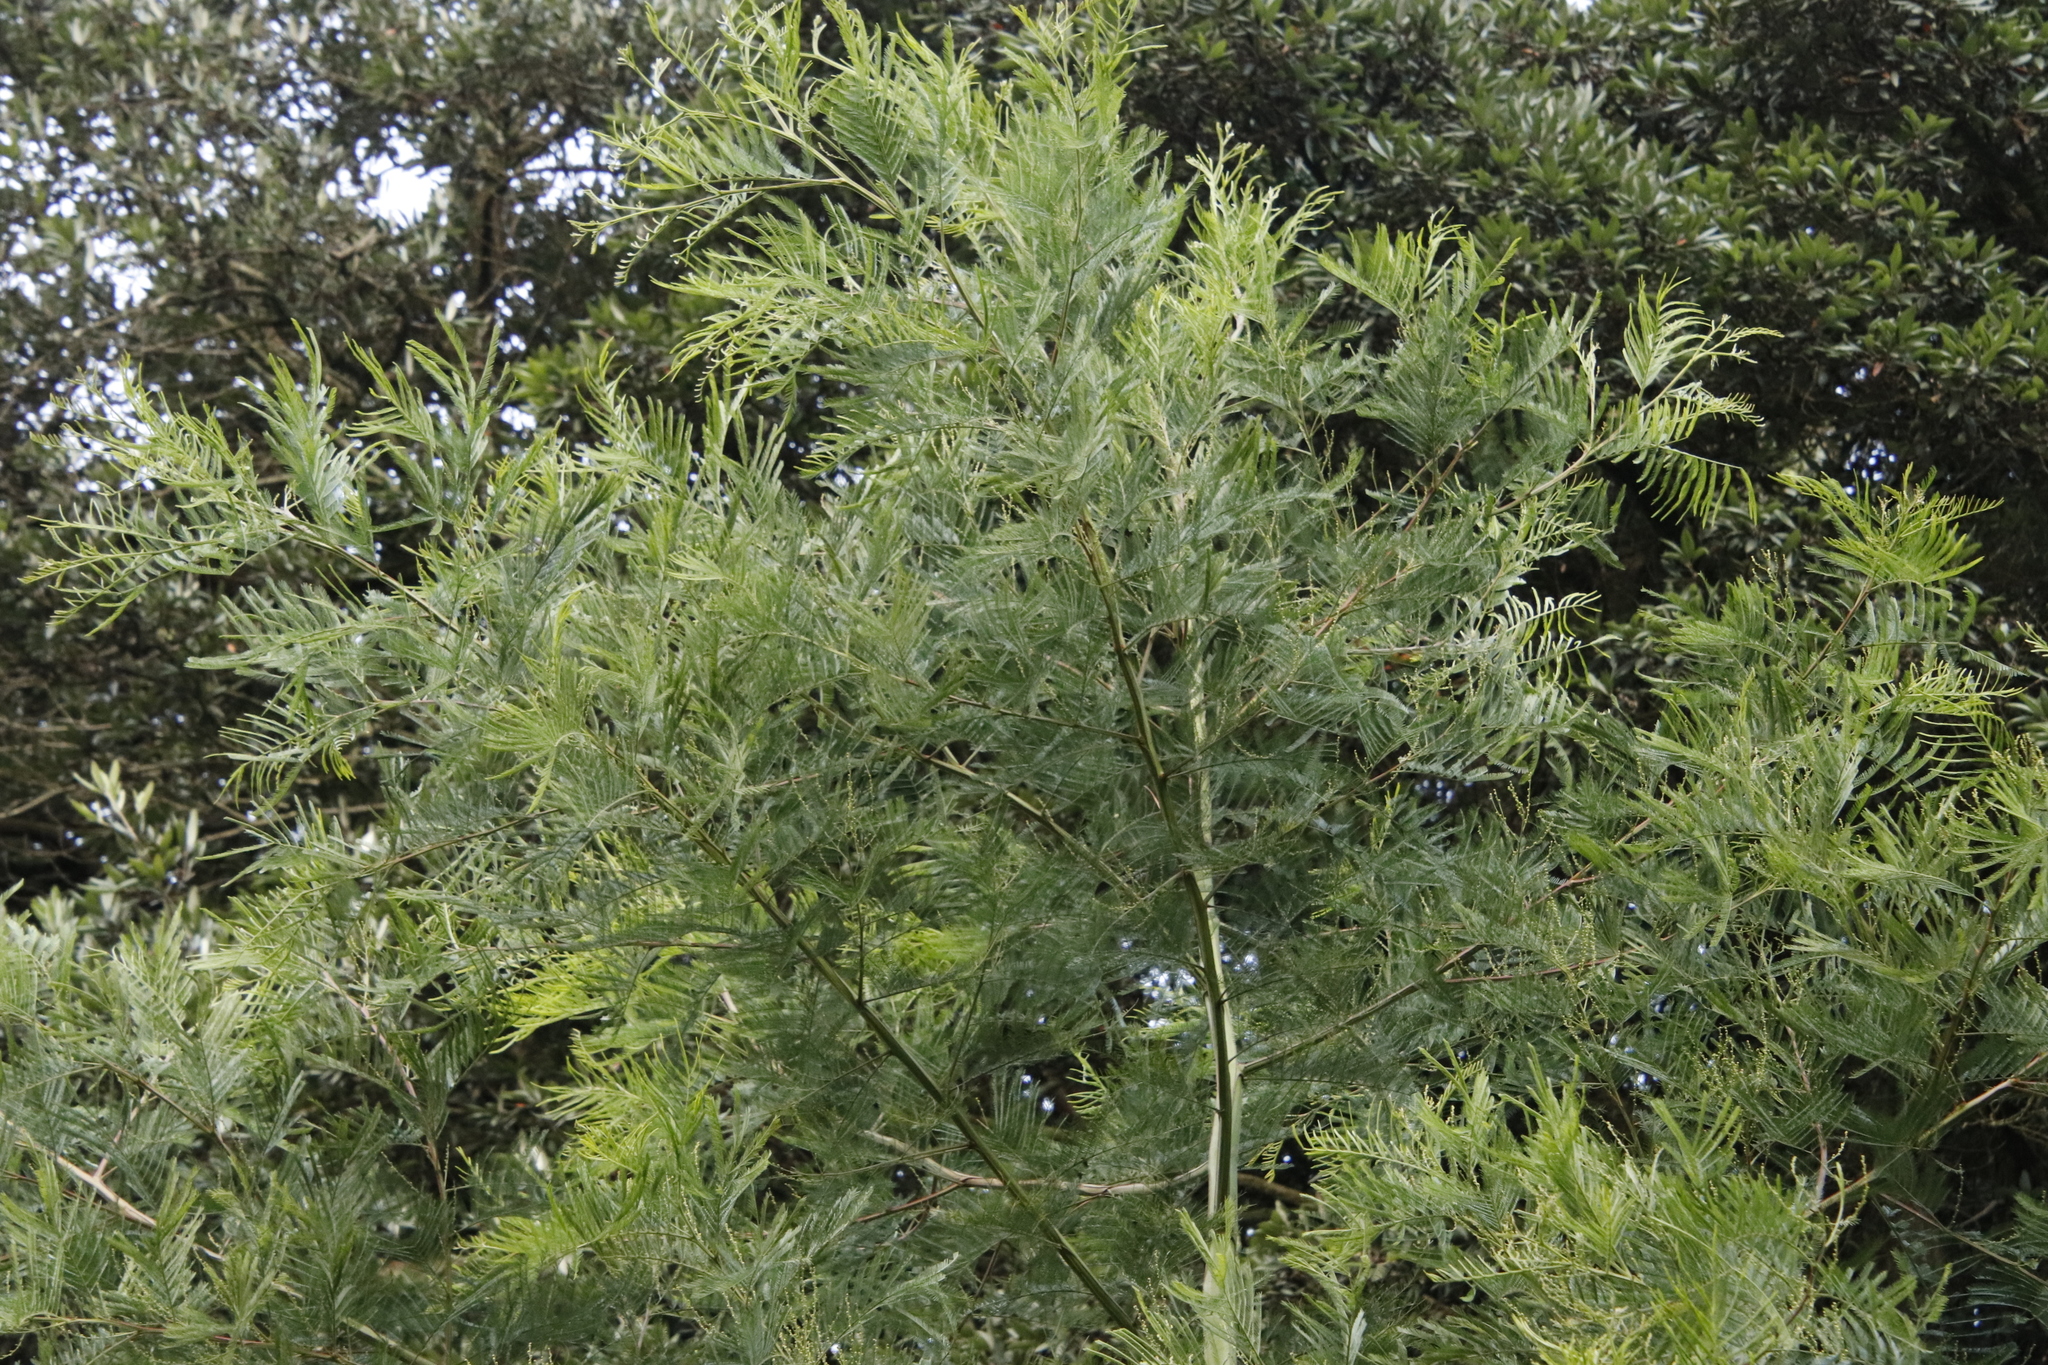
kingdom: Plantae
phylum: Tracheophyta
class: Magnoliopsida
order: Fabales
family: Fabaceae
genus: Acacia
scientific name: Acacia mearnsii
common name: Black wattle
